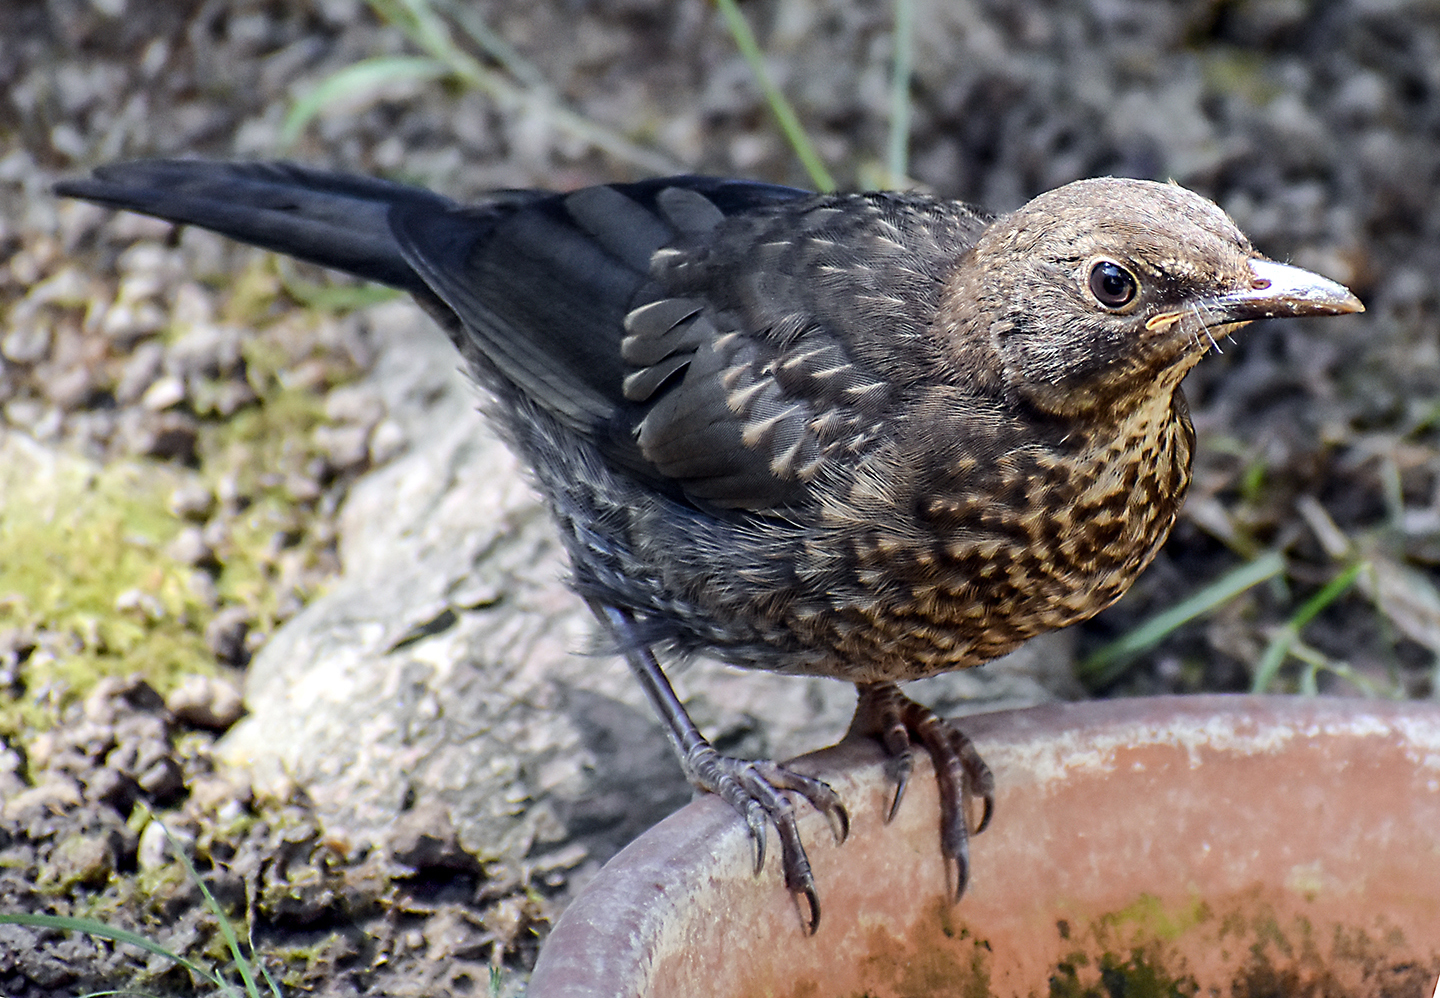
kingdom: Animalia
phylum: Chordata
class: Aves
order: Passeriformes
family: Turdidae
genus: Turdus
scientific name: Turdus merula
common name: Common blackbird
